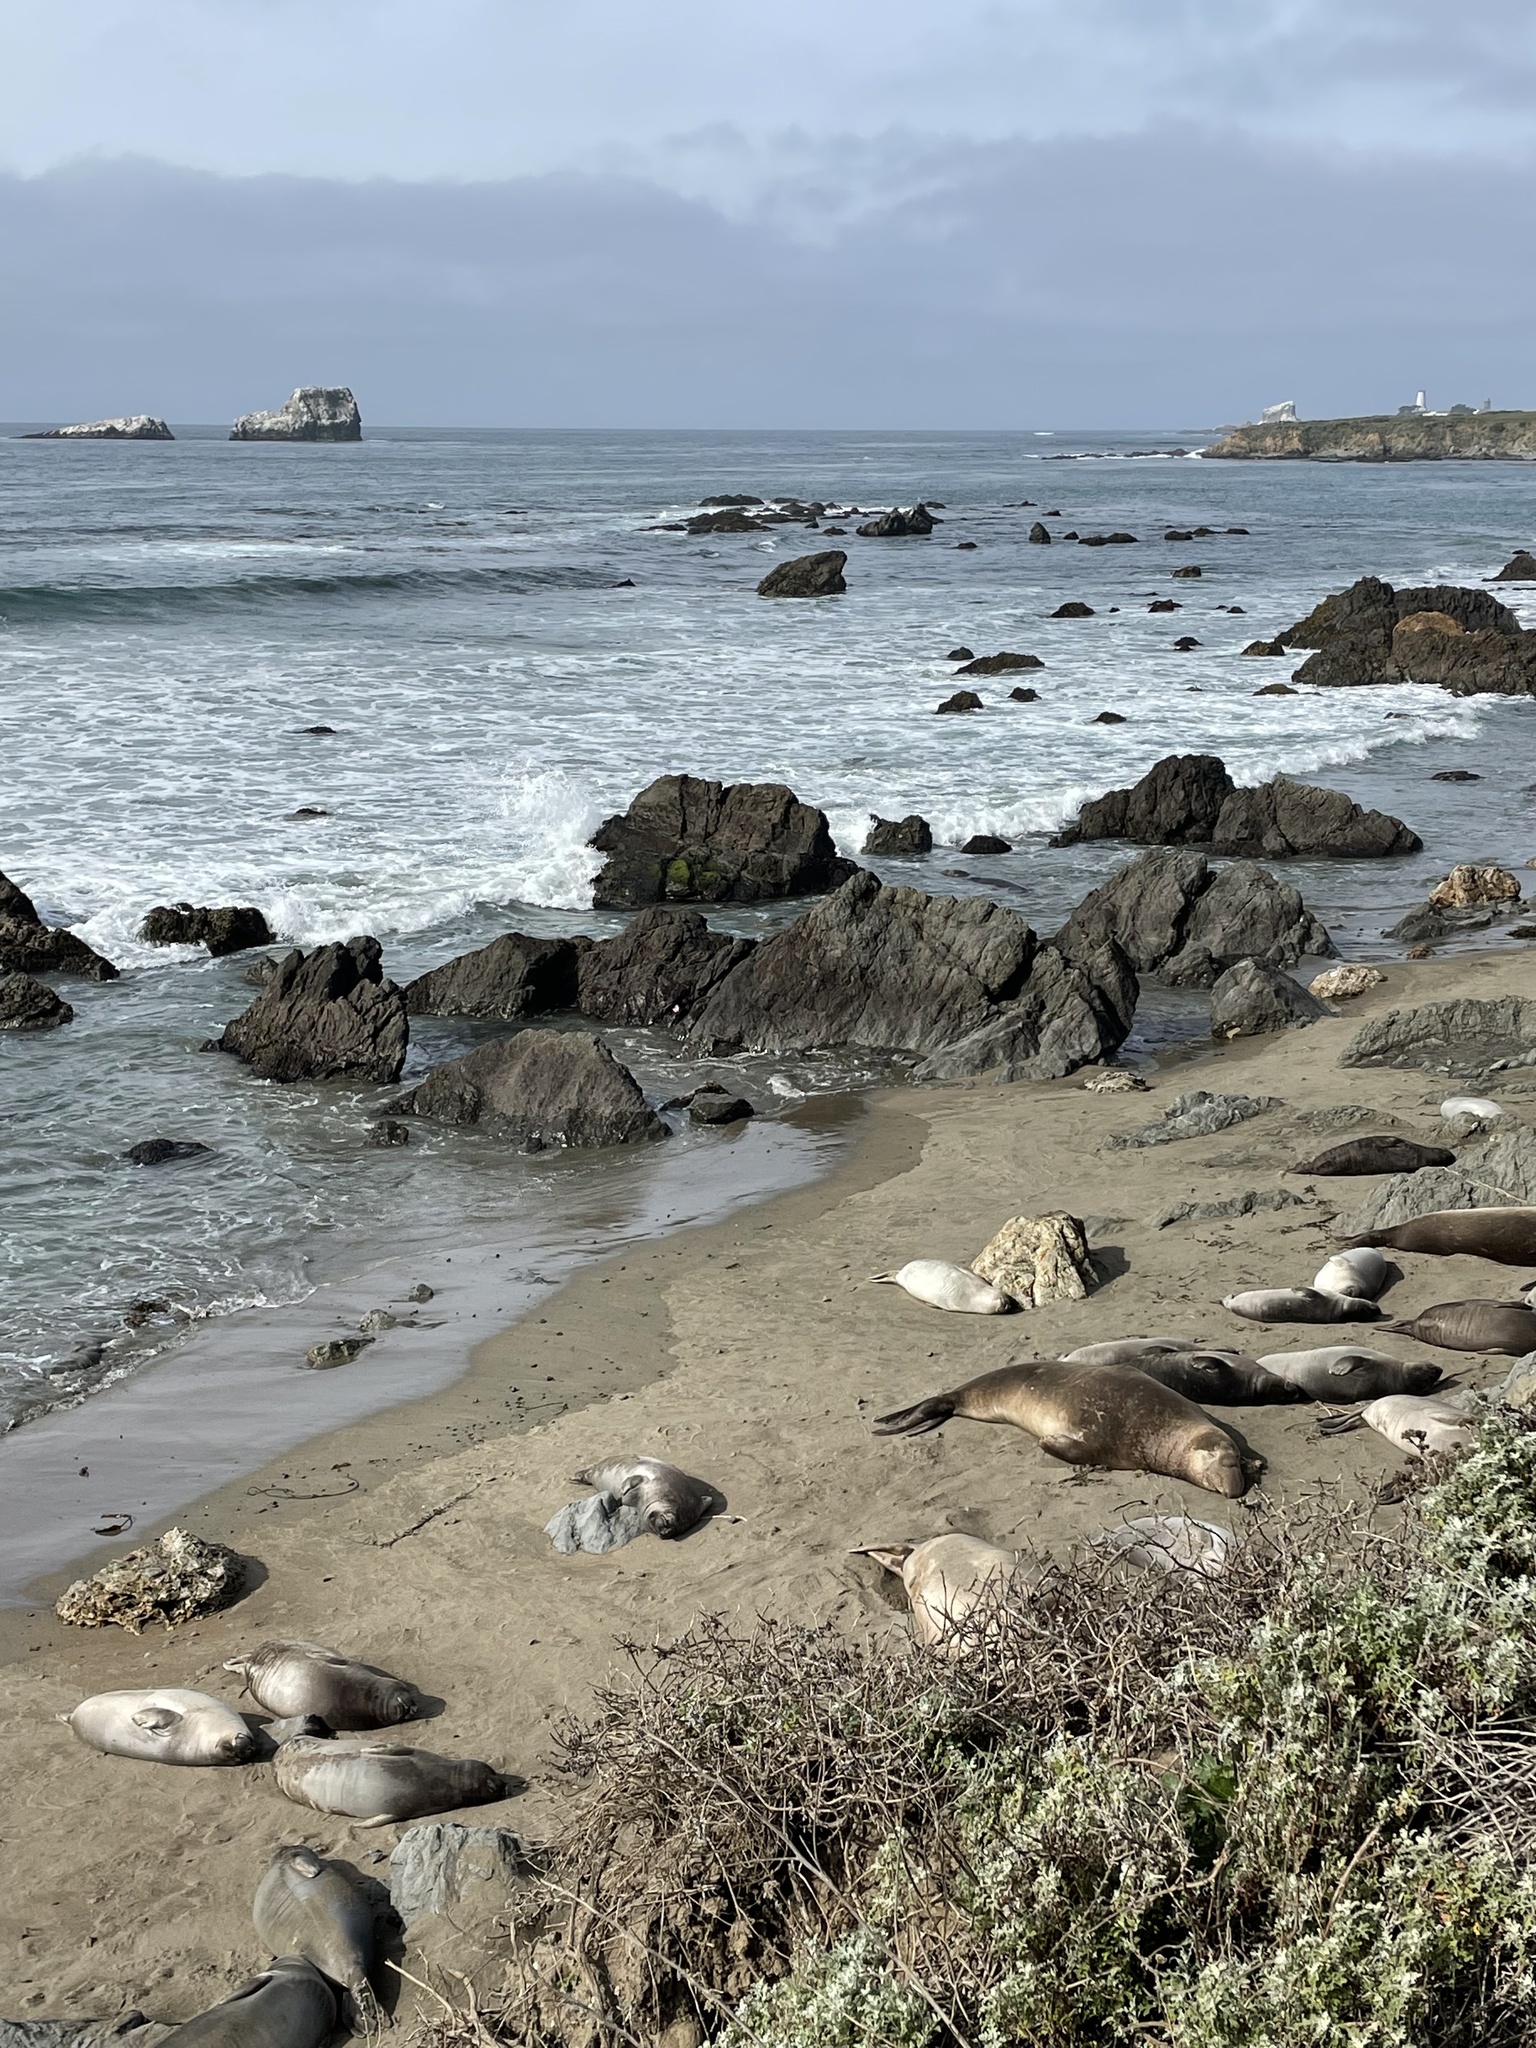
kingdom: Animalia
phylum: Chordata
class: Mammalia
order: Carnivora
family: Phocidae
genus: Mirounga
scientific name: Mirounga angustirostris
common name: Northern elephant seal
